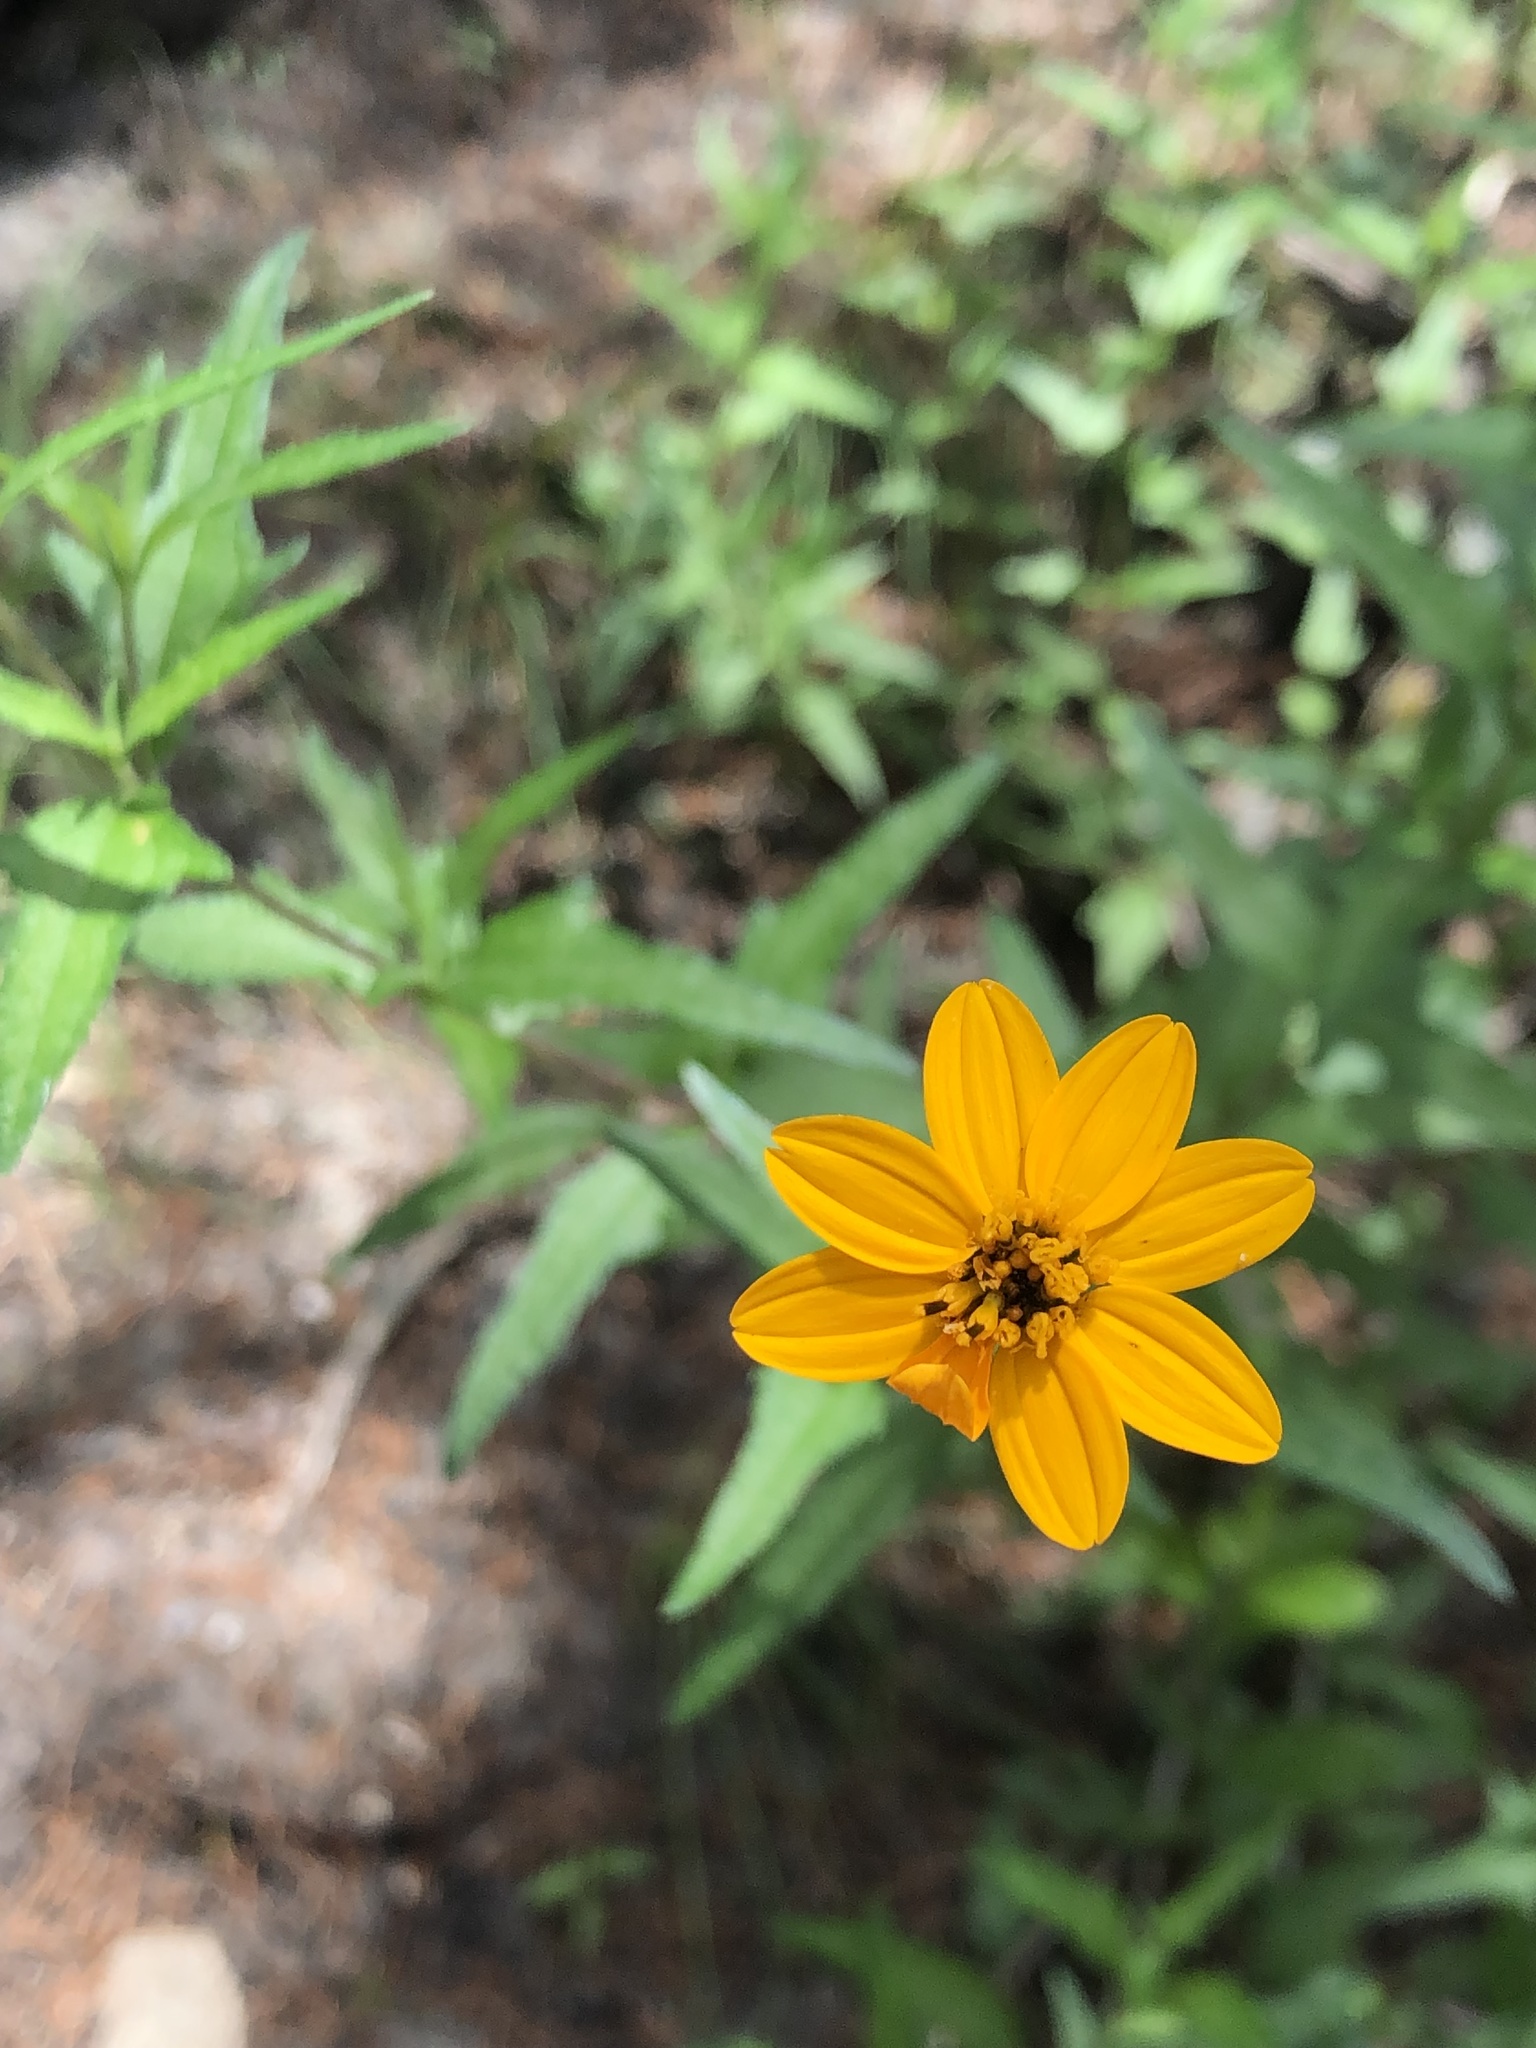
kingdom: Plantae
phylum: Tracheophyta
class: Magnoliopsida
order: Asterales
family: Asteraceae
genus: Wedelia
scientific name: Wedelia acapulcensis
